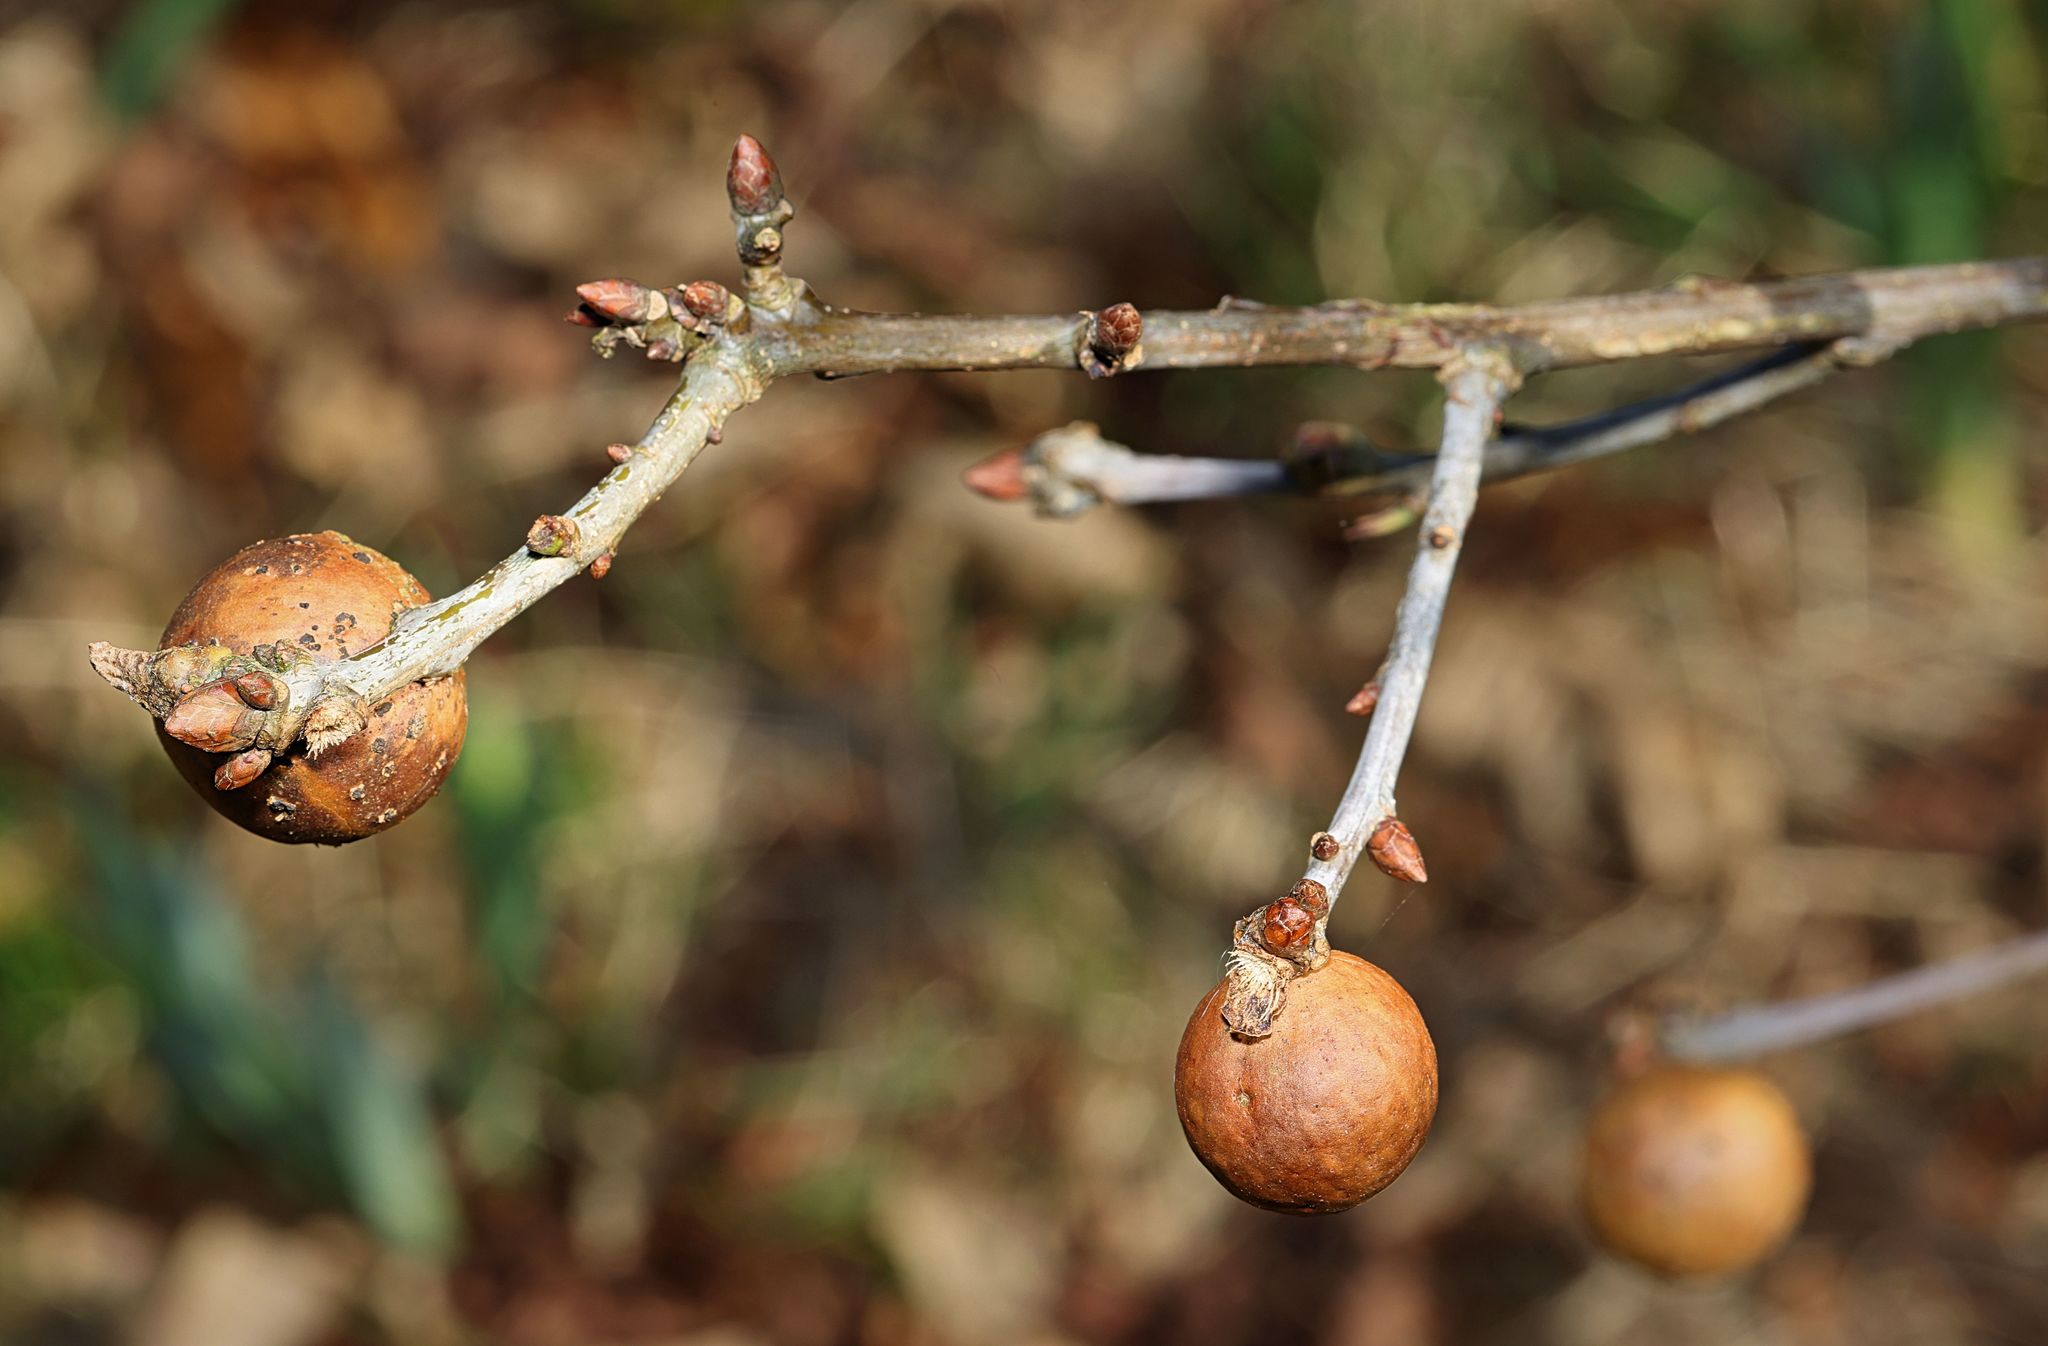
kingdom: Animalia
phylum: Arthropoda
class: Insecta
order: Hymenoptera
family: Cynipidae
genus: Andricus
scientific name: Andricus kollari
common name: Marble gall
